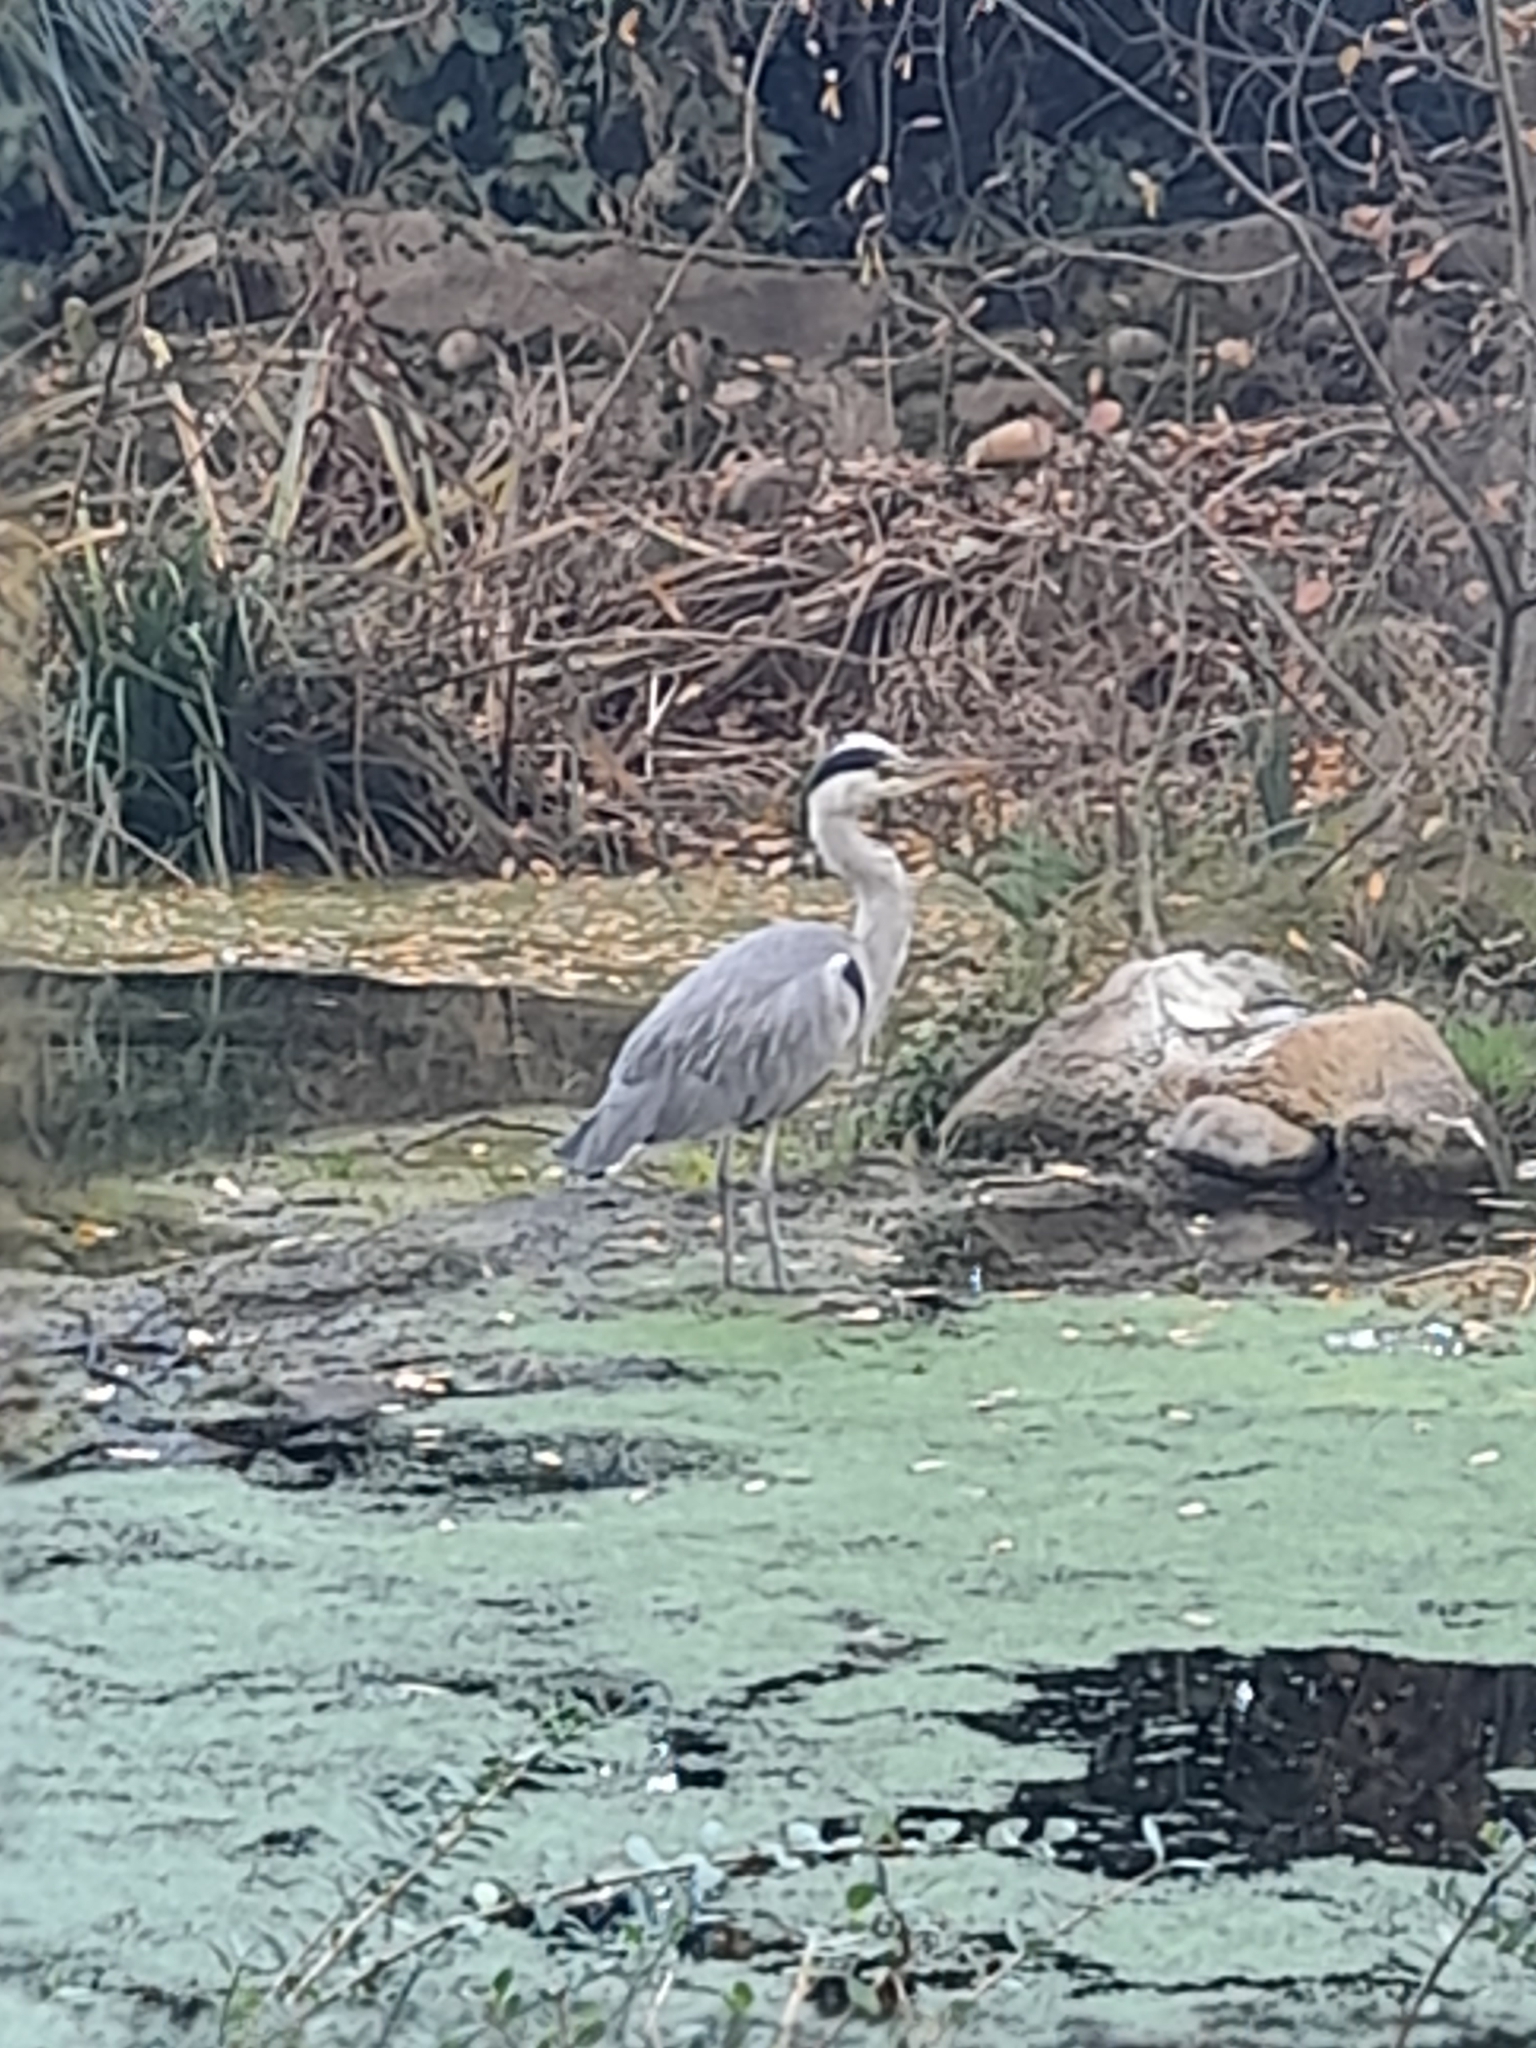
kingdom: Animalia
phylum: Chordata
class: Aves
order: Pelecaniformes
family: Ardeidae
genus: Ardea
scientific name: Ardea cinerea
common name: Grey heron
